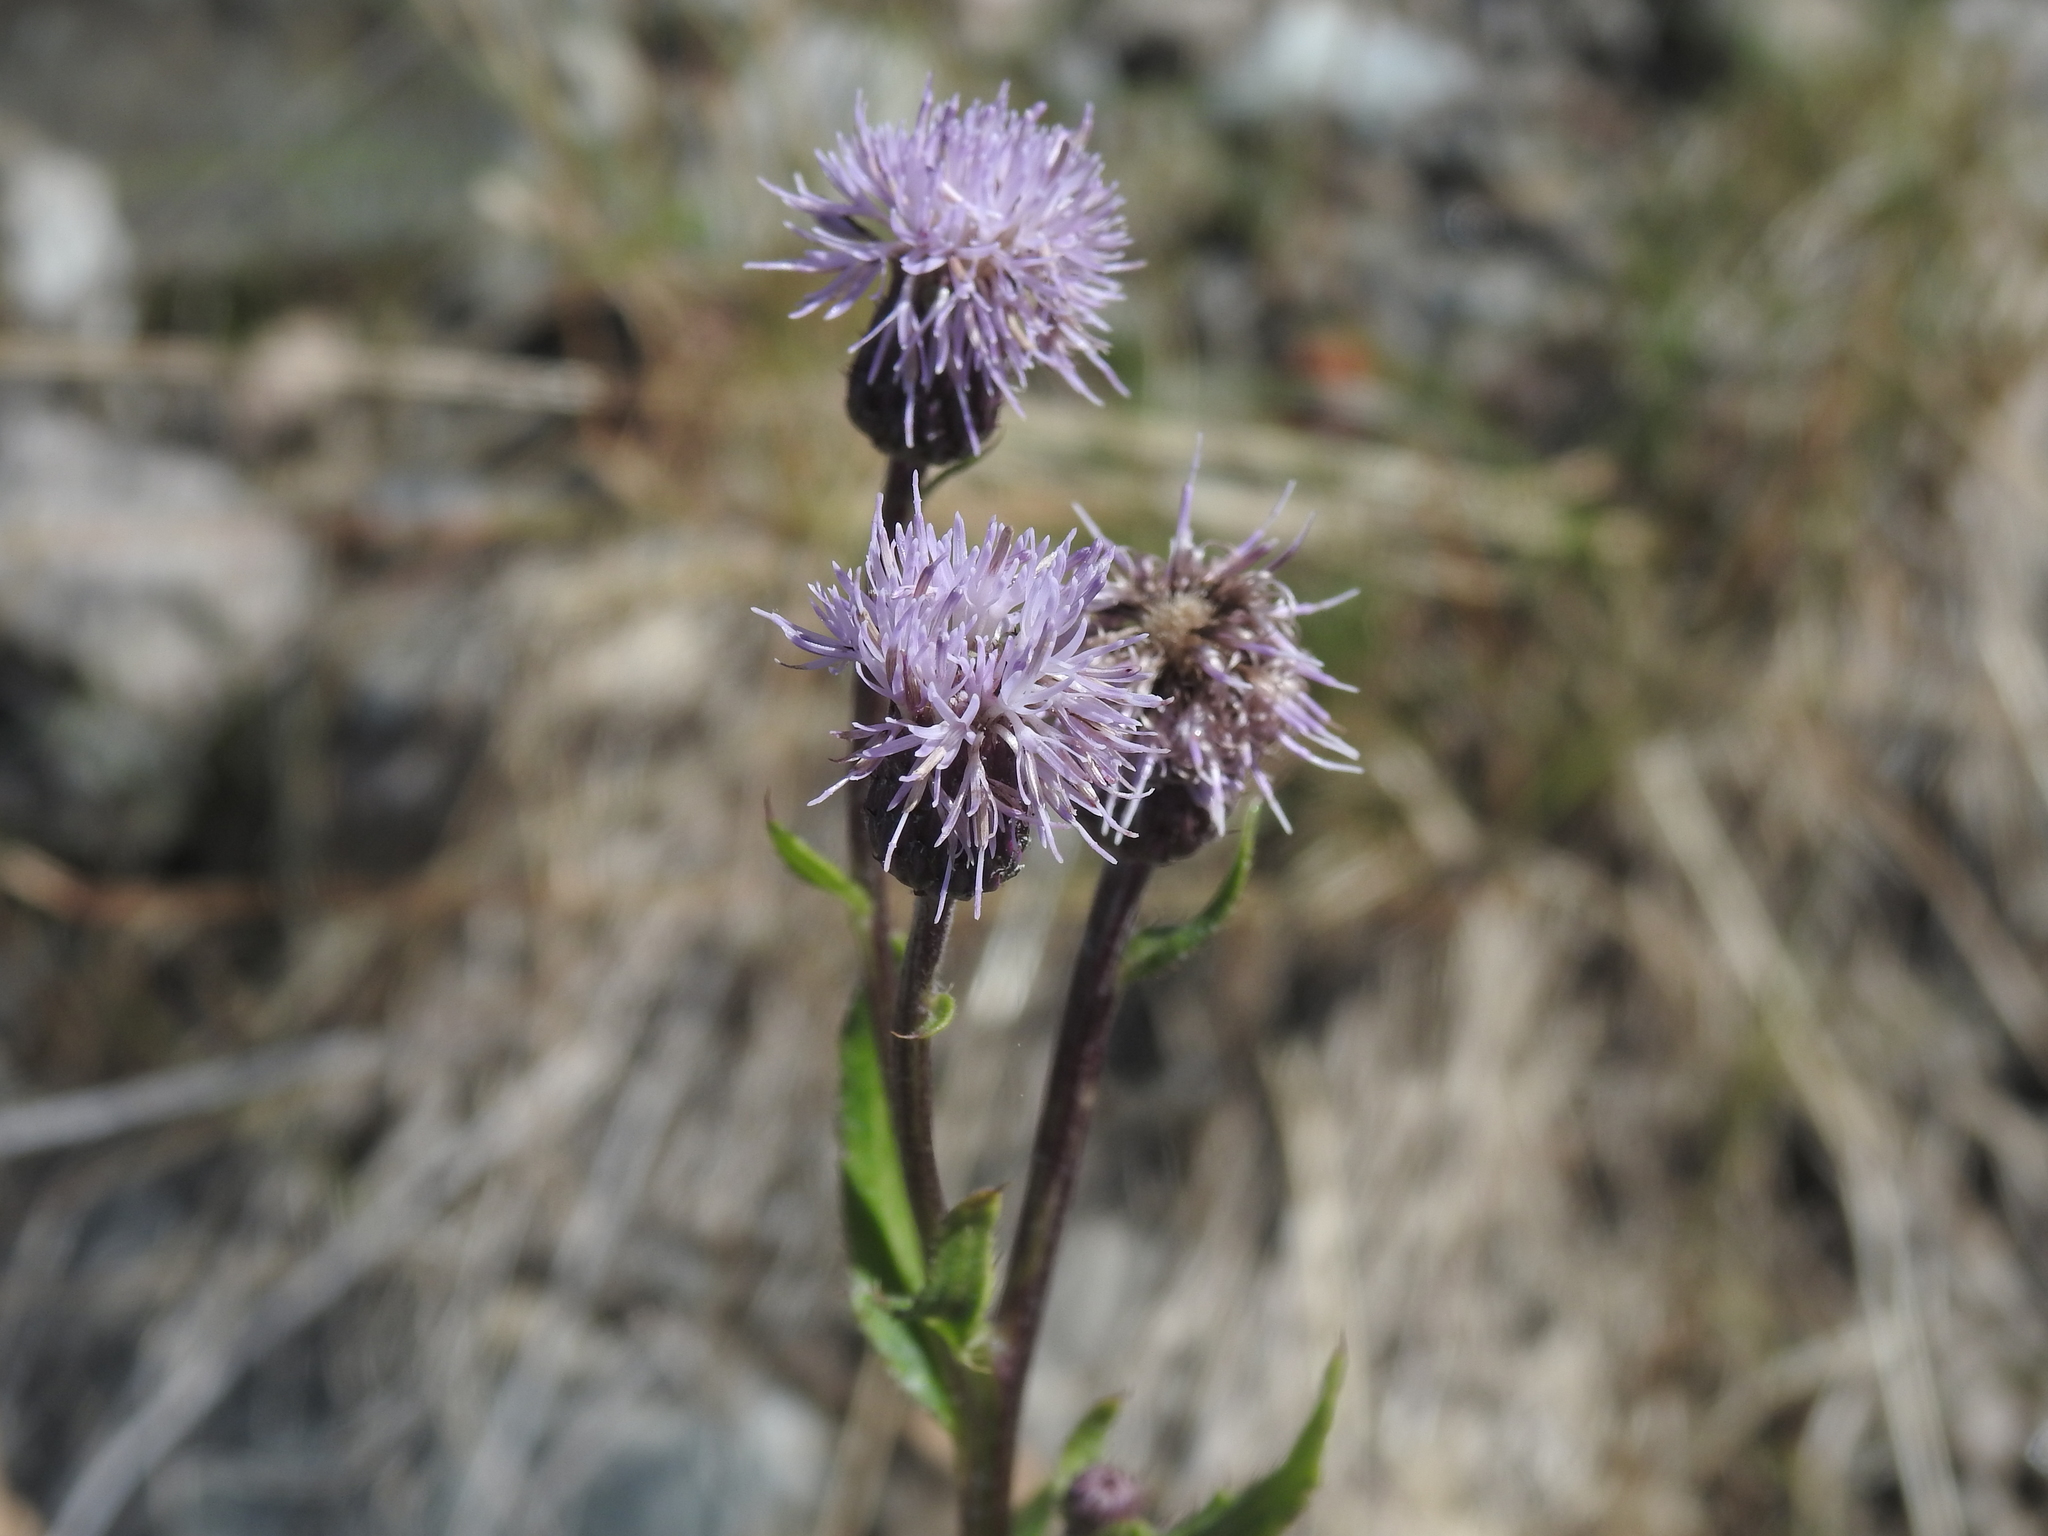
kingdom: Plantae
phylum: Tracheophyta
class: Magnoliopsida
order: Asterales
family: Asteraceae
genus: Cirsium
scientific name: Cirsium arvense
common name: Creeping thistle
